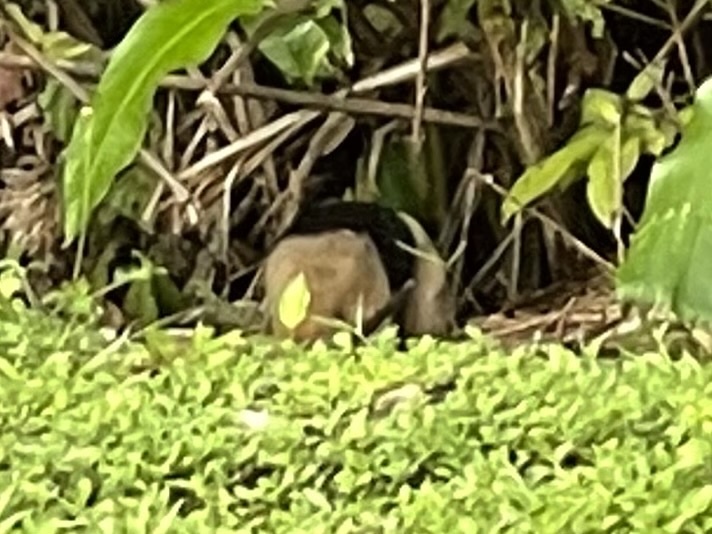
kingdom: Animalia
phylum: Chordata
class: Mammalia
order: Pilosa
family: Myrmecophagidae
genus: Tamandua
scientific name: Tamandua mexicana
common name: Northern tamandua
